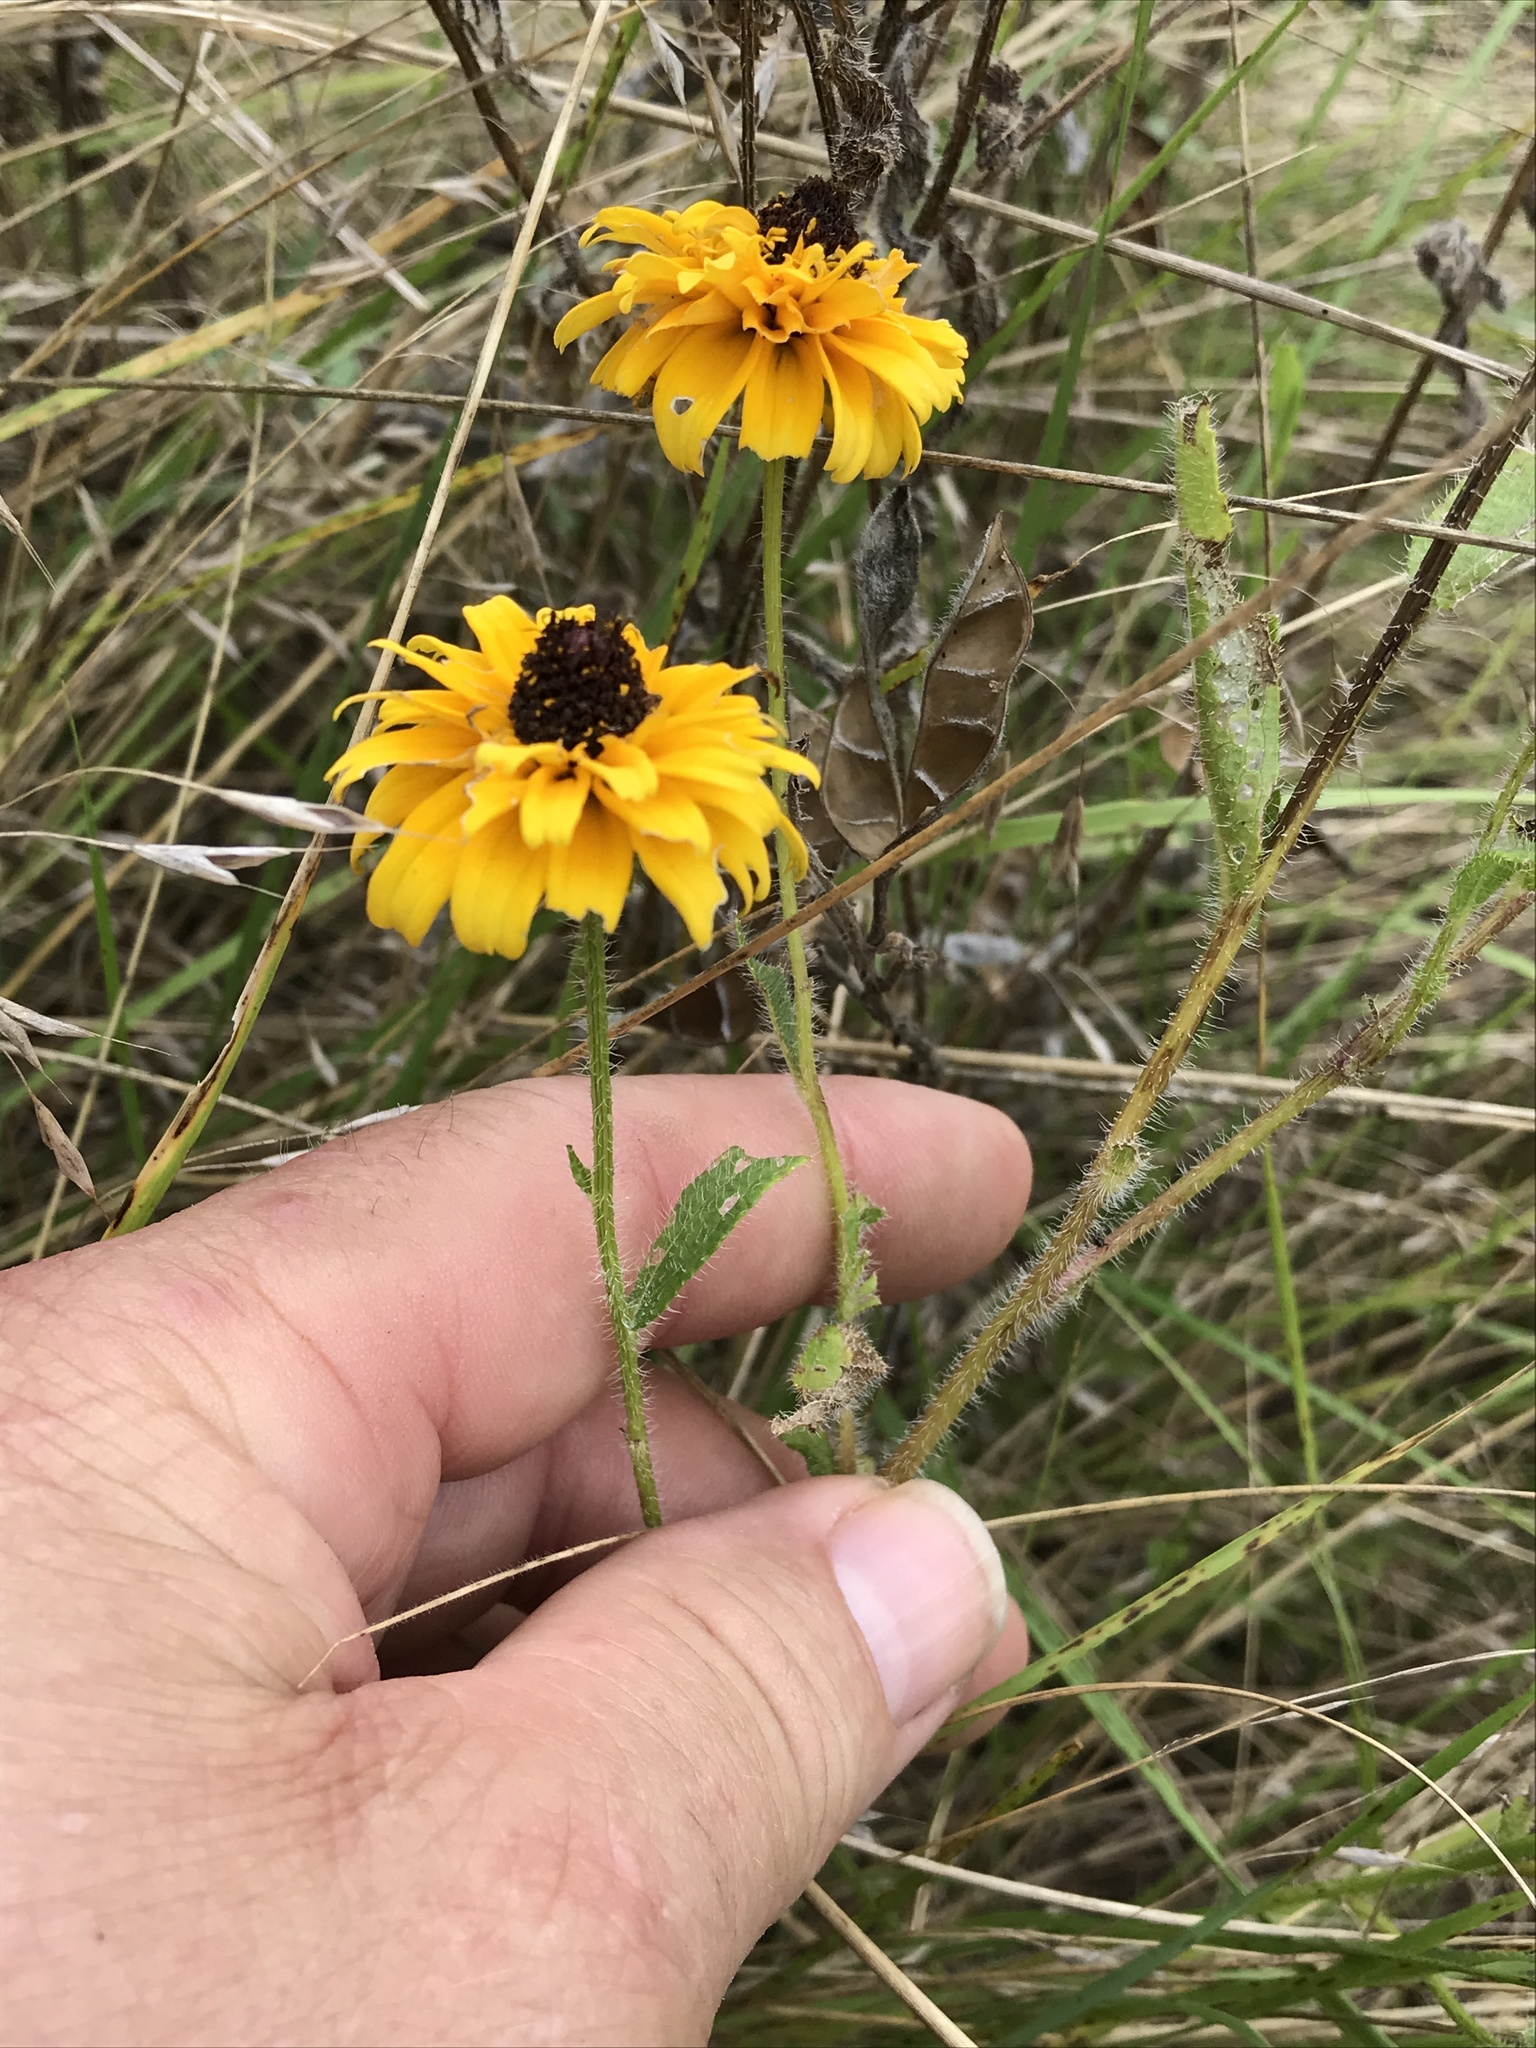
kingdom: Plantae
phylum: Tracheophyta
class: Magnoliopsida
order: Asterales
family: Asteraceae
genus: Rudbeckia
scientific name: Rudbeckia hirta
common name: Black-eyed-susan
